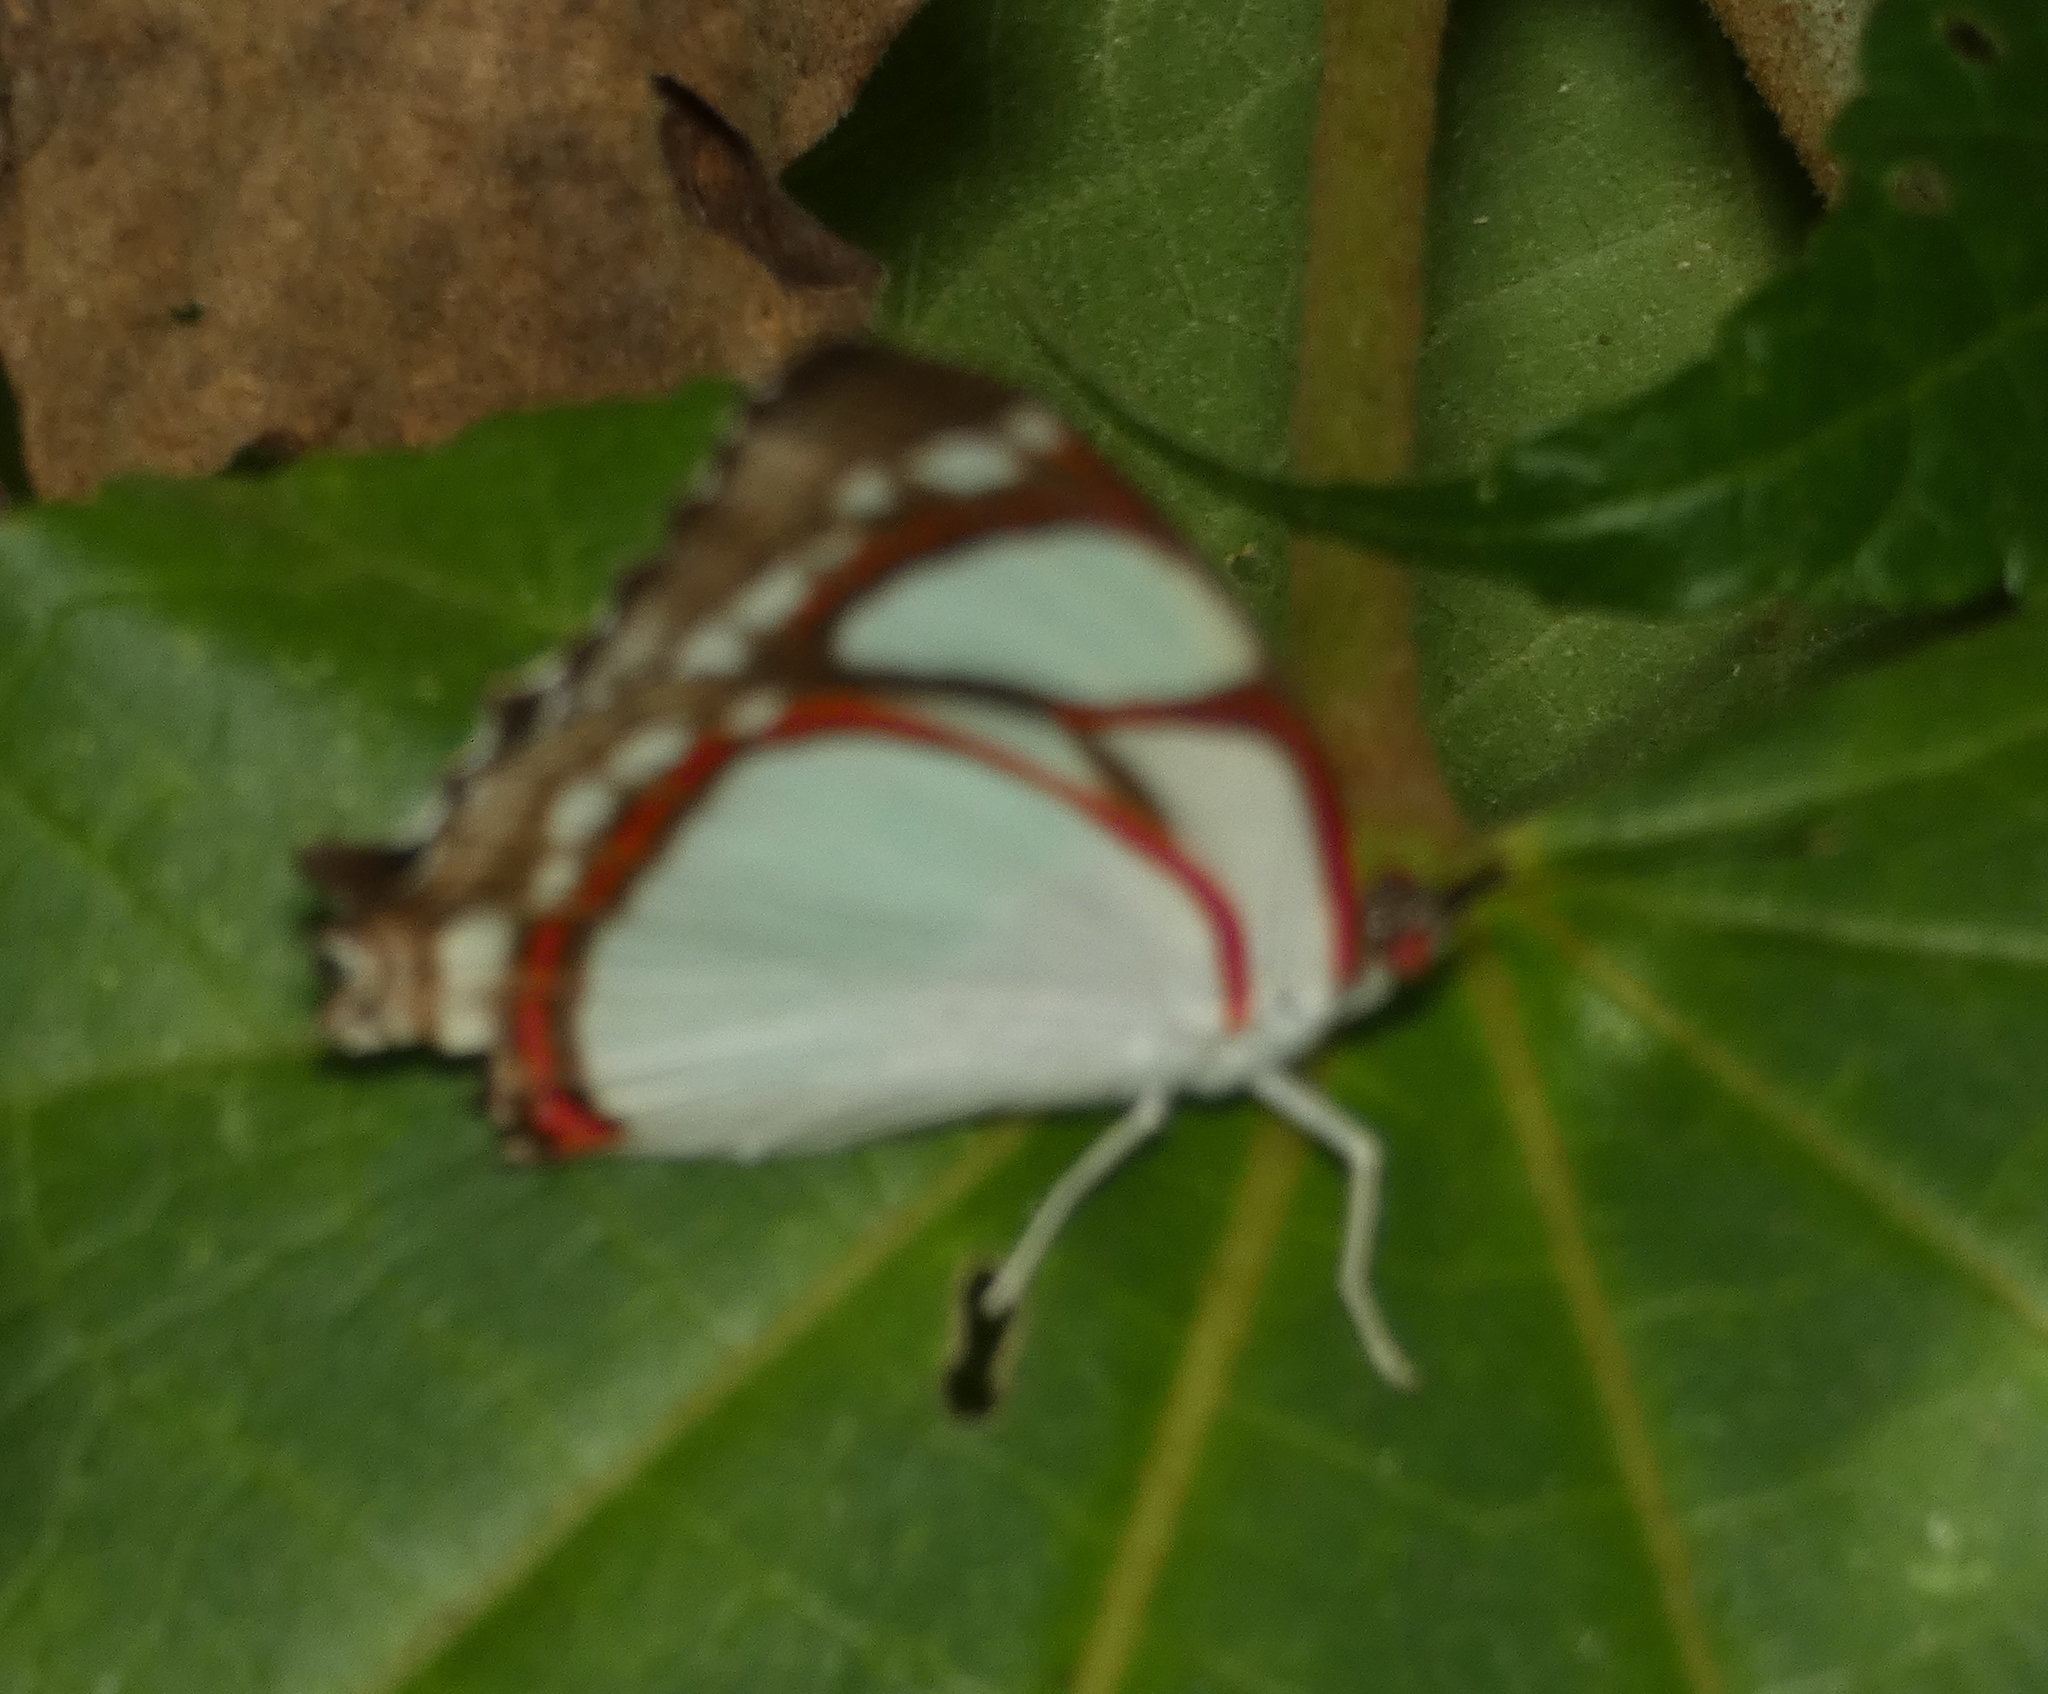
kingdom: Animalia
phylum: Arthropoda
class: Insecta
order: Lepidoptera
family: Nymphalidae
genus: Pyrrhogyra
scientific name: Pyrrhogyra neaerea
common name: Leading red-ring
